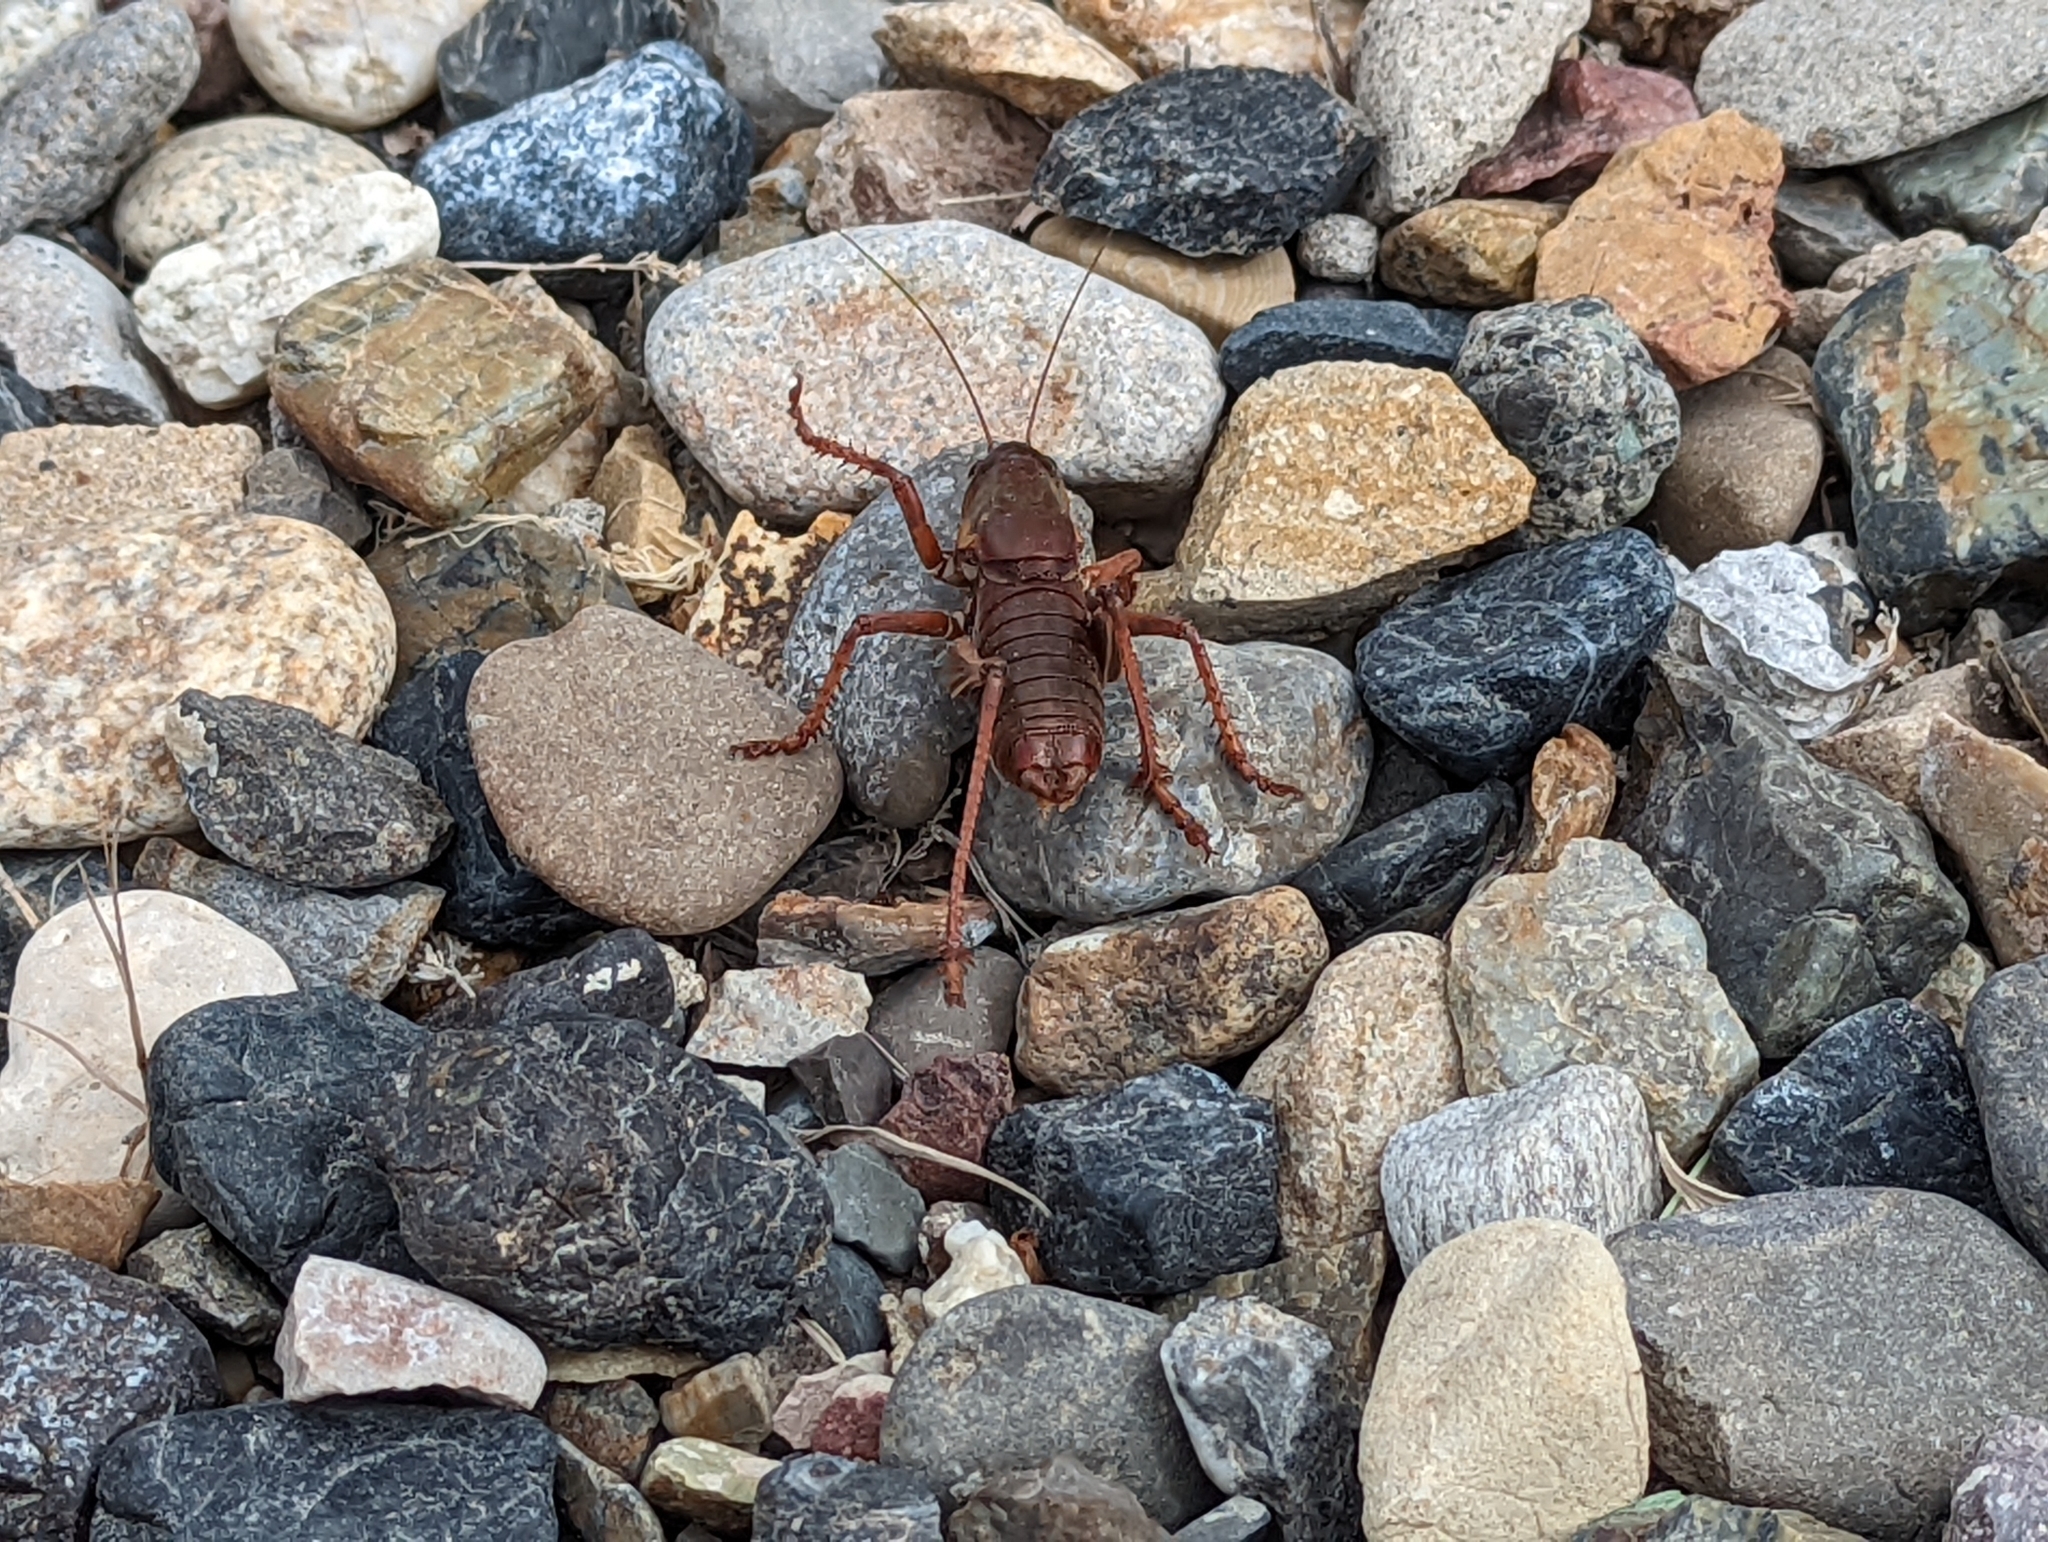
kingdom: Animalia
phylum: Arthropoda
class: Insecta
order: Orthoptera
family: Tettigoniidae
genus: Anabrus
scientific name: Anabrus simplex
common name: Mormon cricket
